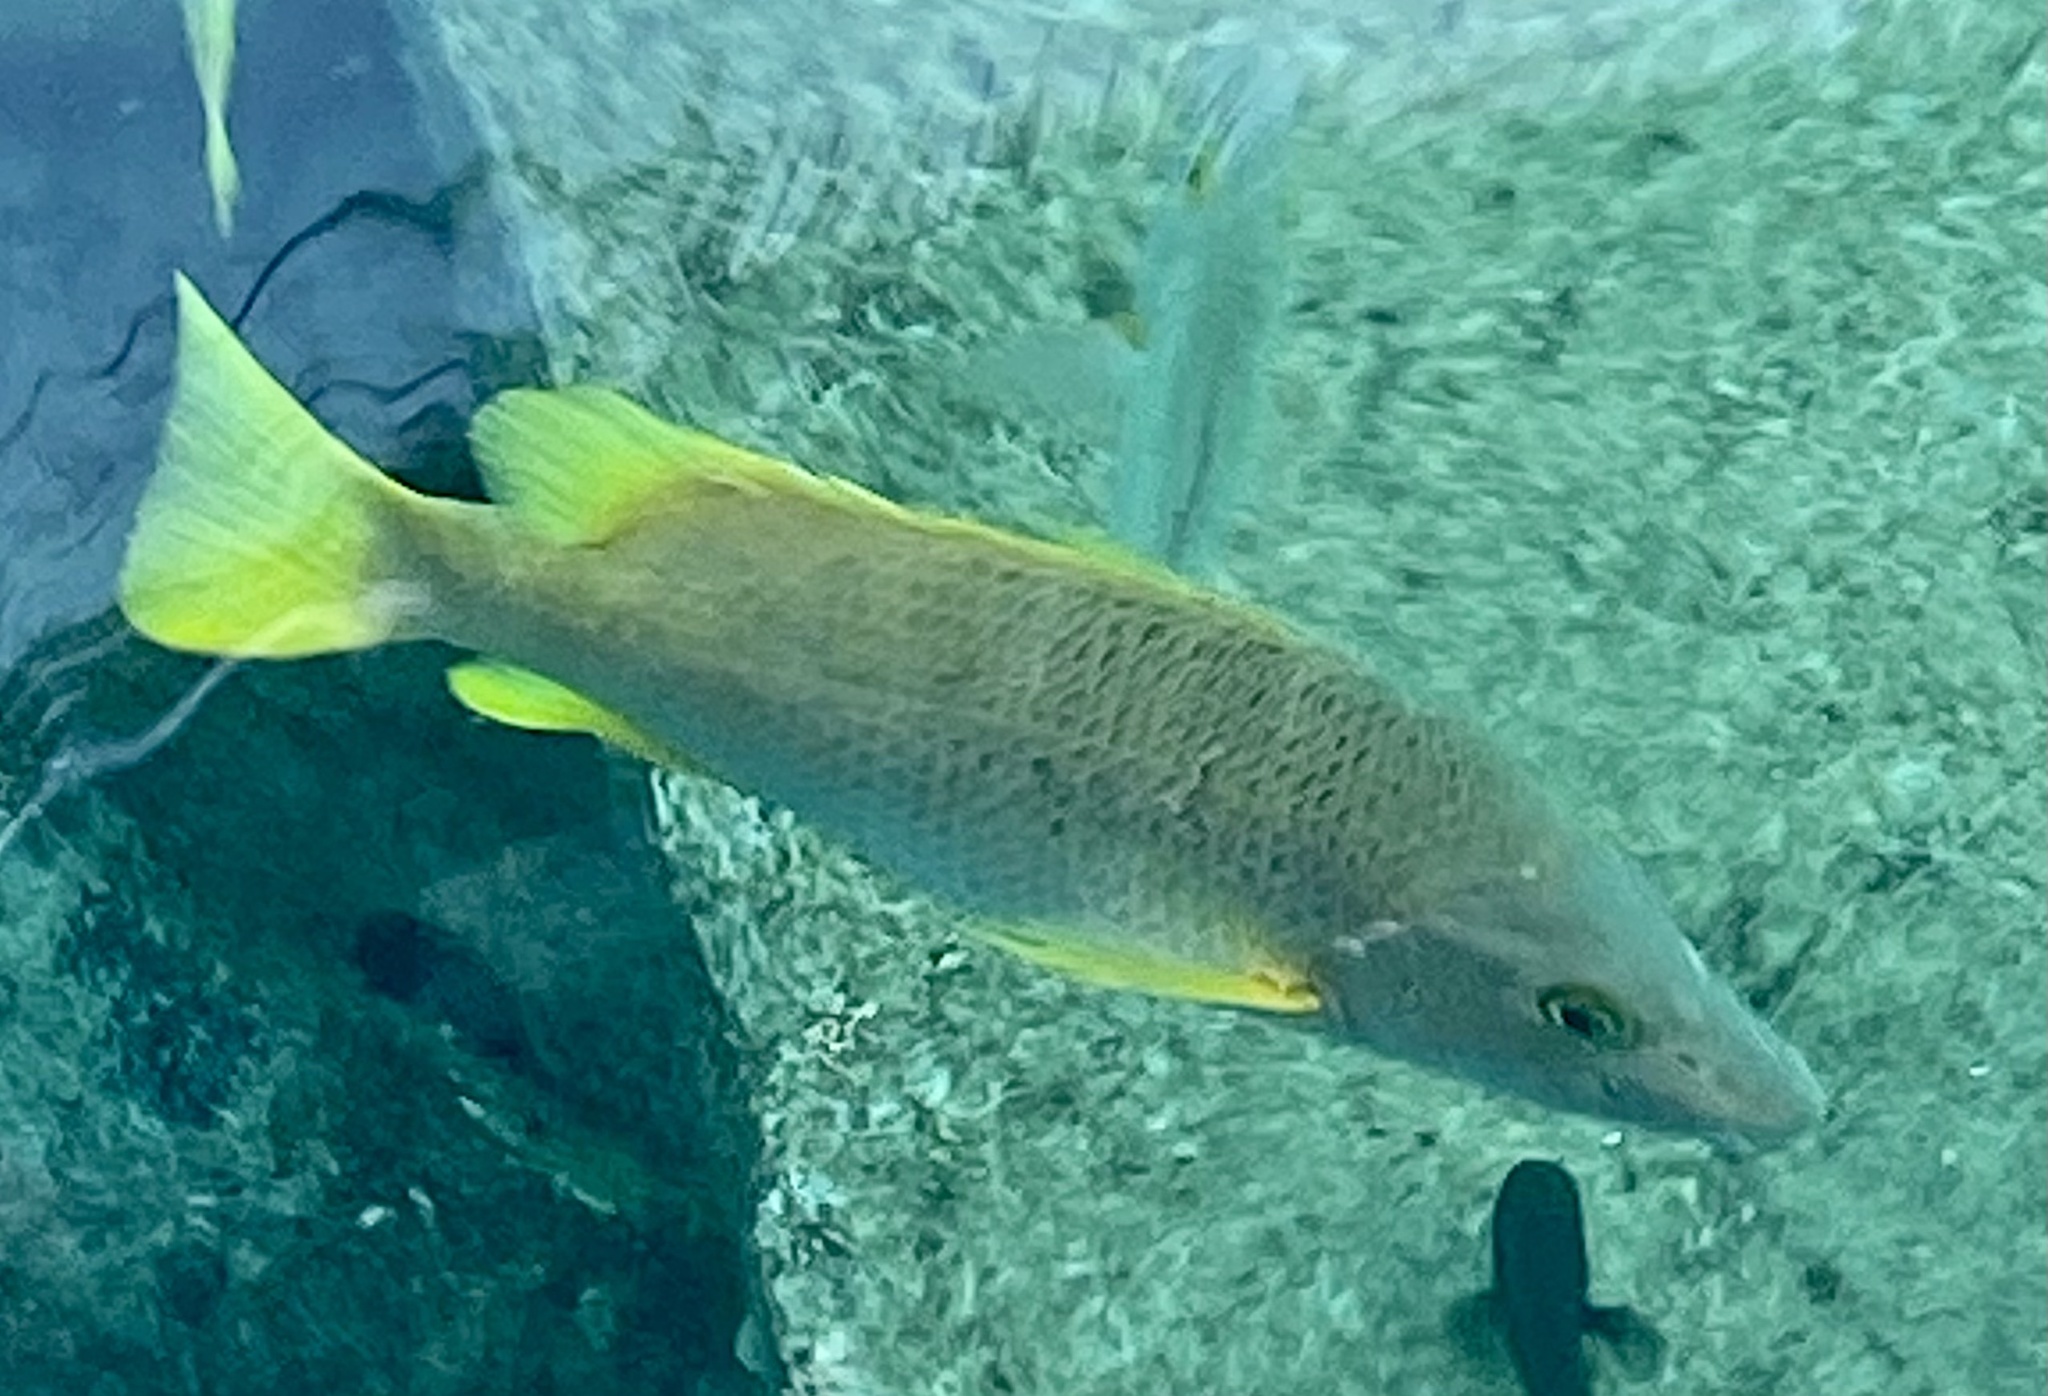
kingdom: Animalia
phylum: Chordata
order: Perciformes
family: Lutjanidae
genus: Lutjanus
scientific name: Lutjanus apodus
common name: Schoolmaster
